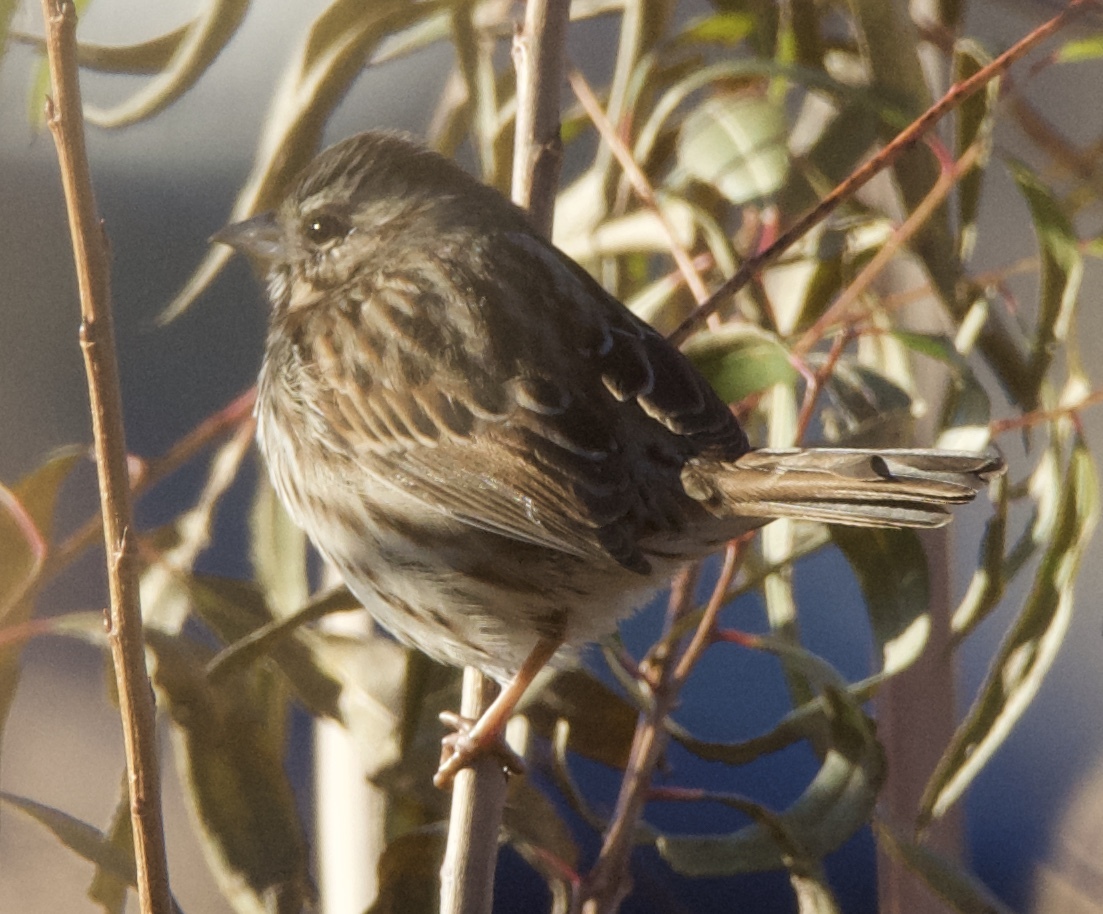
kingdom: Animalia
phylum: Chordata
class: Aves
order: Passeriformes
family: Passerellidae
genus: Melospiza
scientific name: Melospiza melodia
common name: Song sparrow
